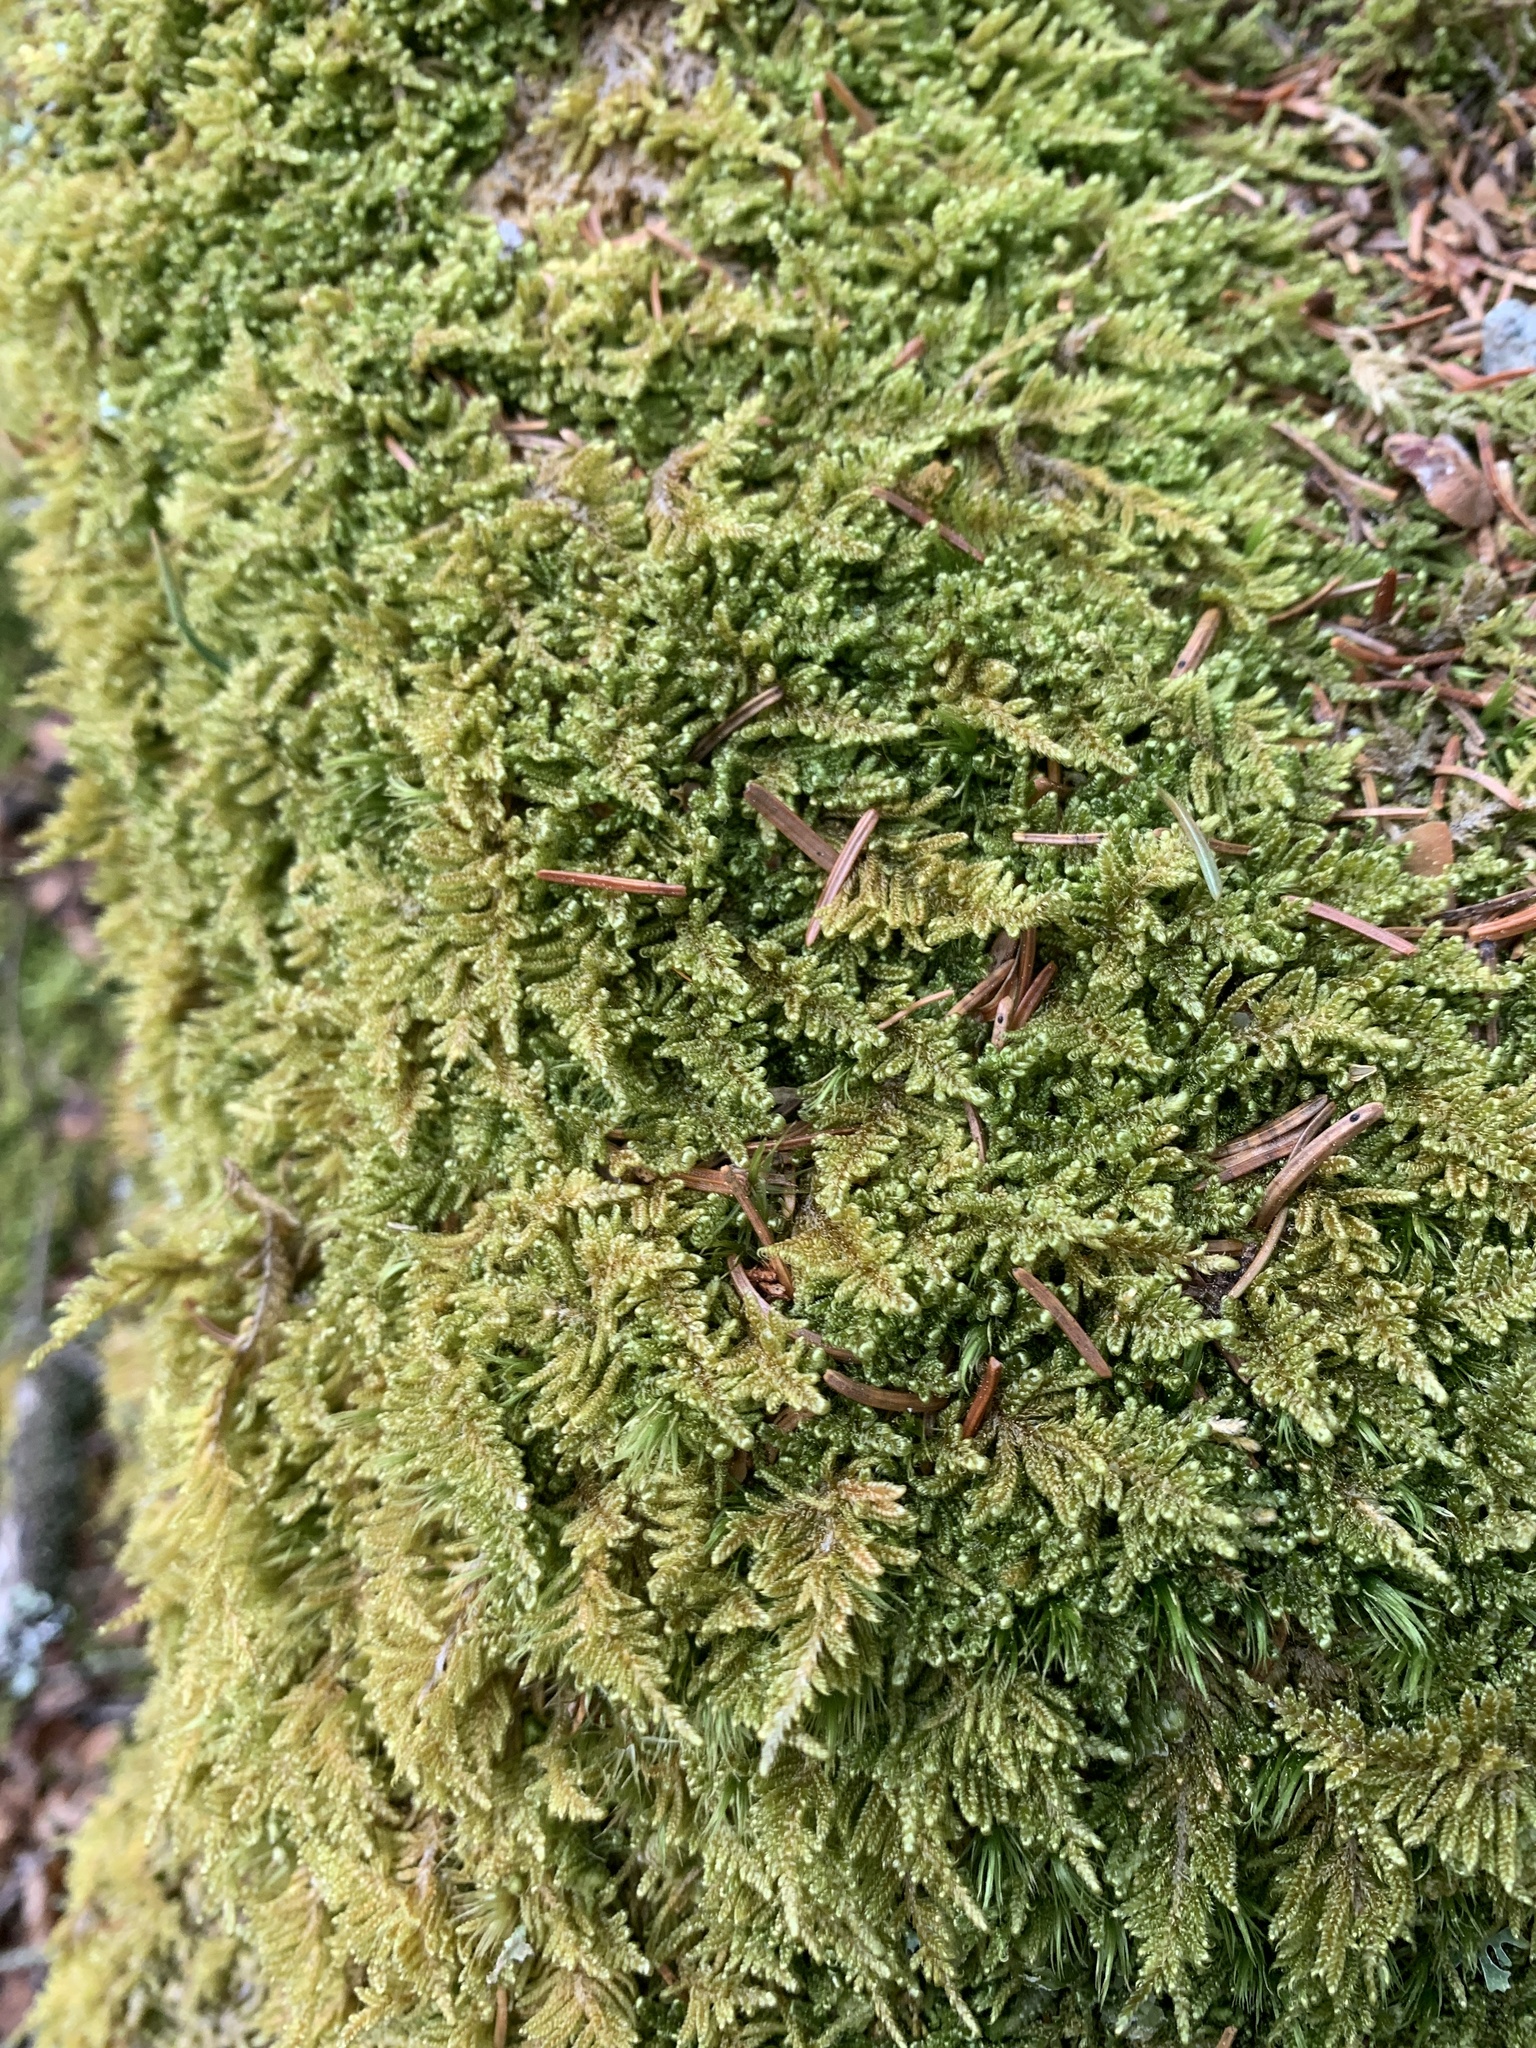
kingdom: Plantae
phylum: Bryophyta
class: Bryopsida
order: Hypnales
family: Callicladiaceae
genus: Callicladium
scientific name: Callicladium imponens
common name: Brocade moss
